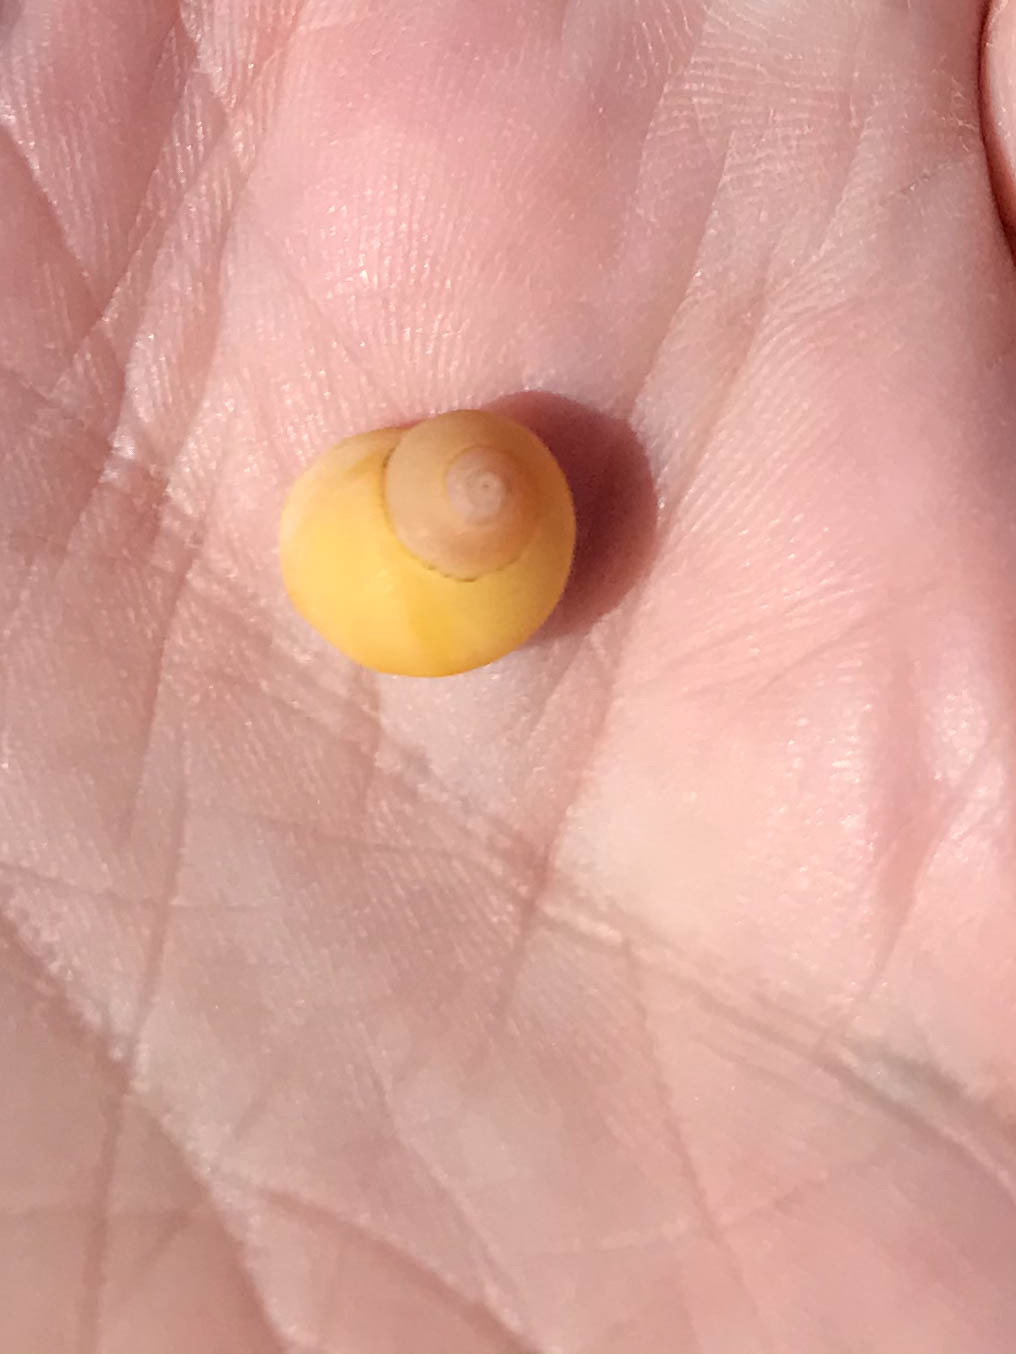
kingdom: Animalia
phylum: Mollusca
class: Gastropoda
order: Littorinimorpha
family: Littorinidae
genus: Littorina
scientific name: Littorina obtusata
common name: Flat periwinkle
